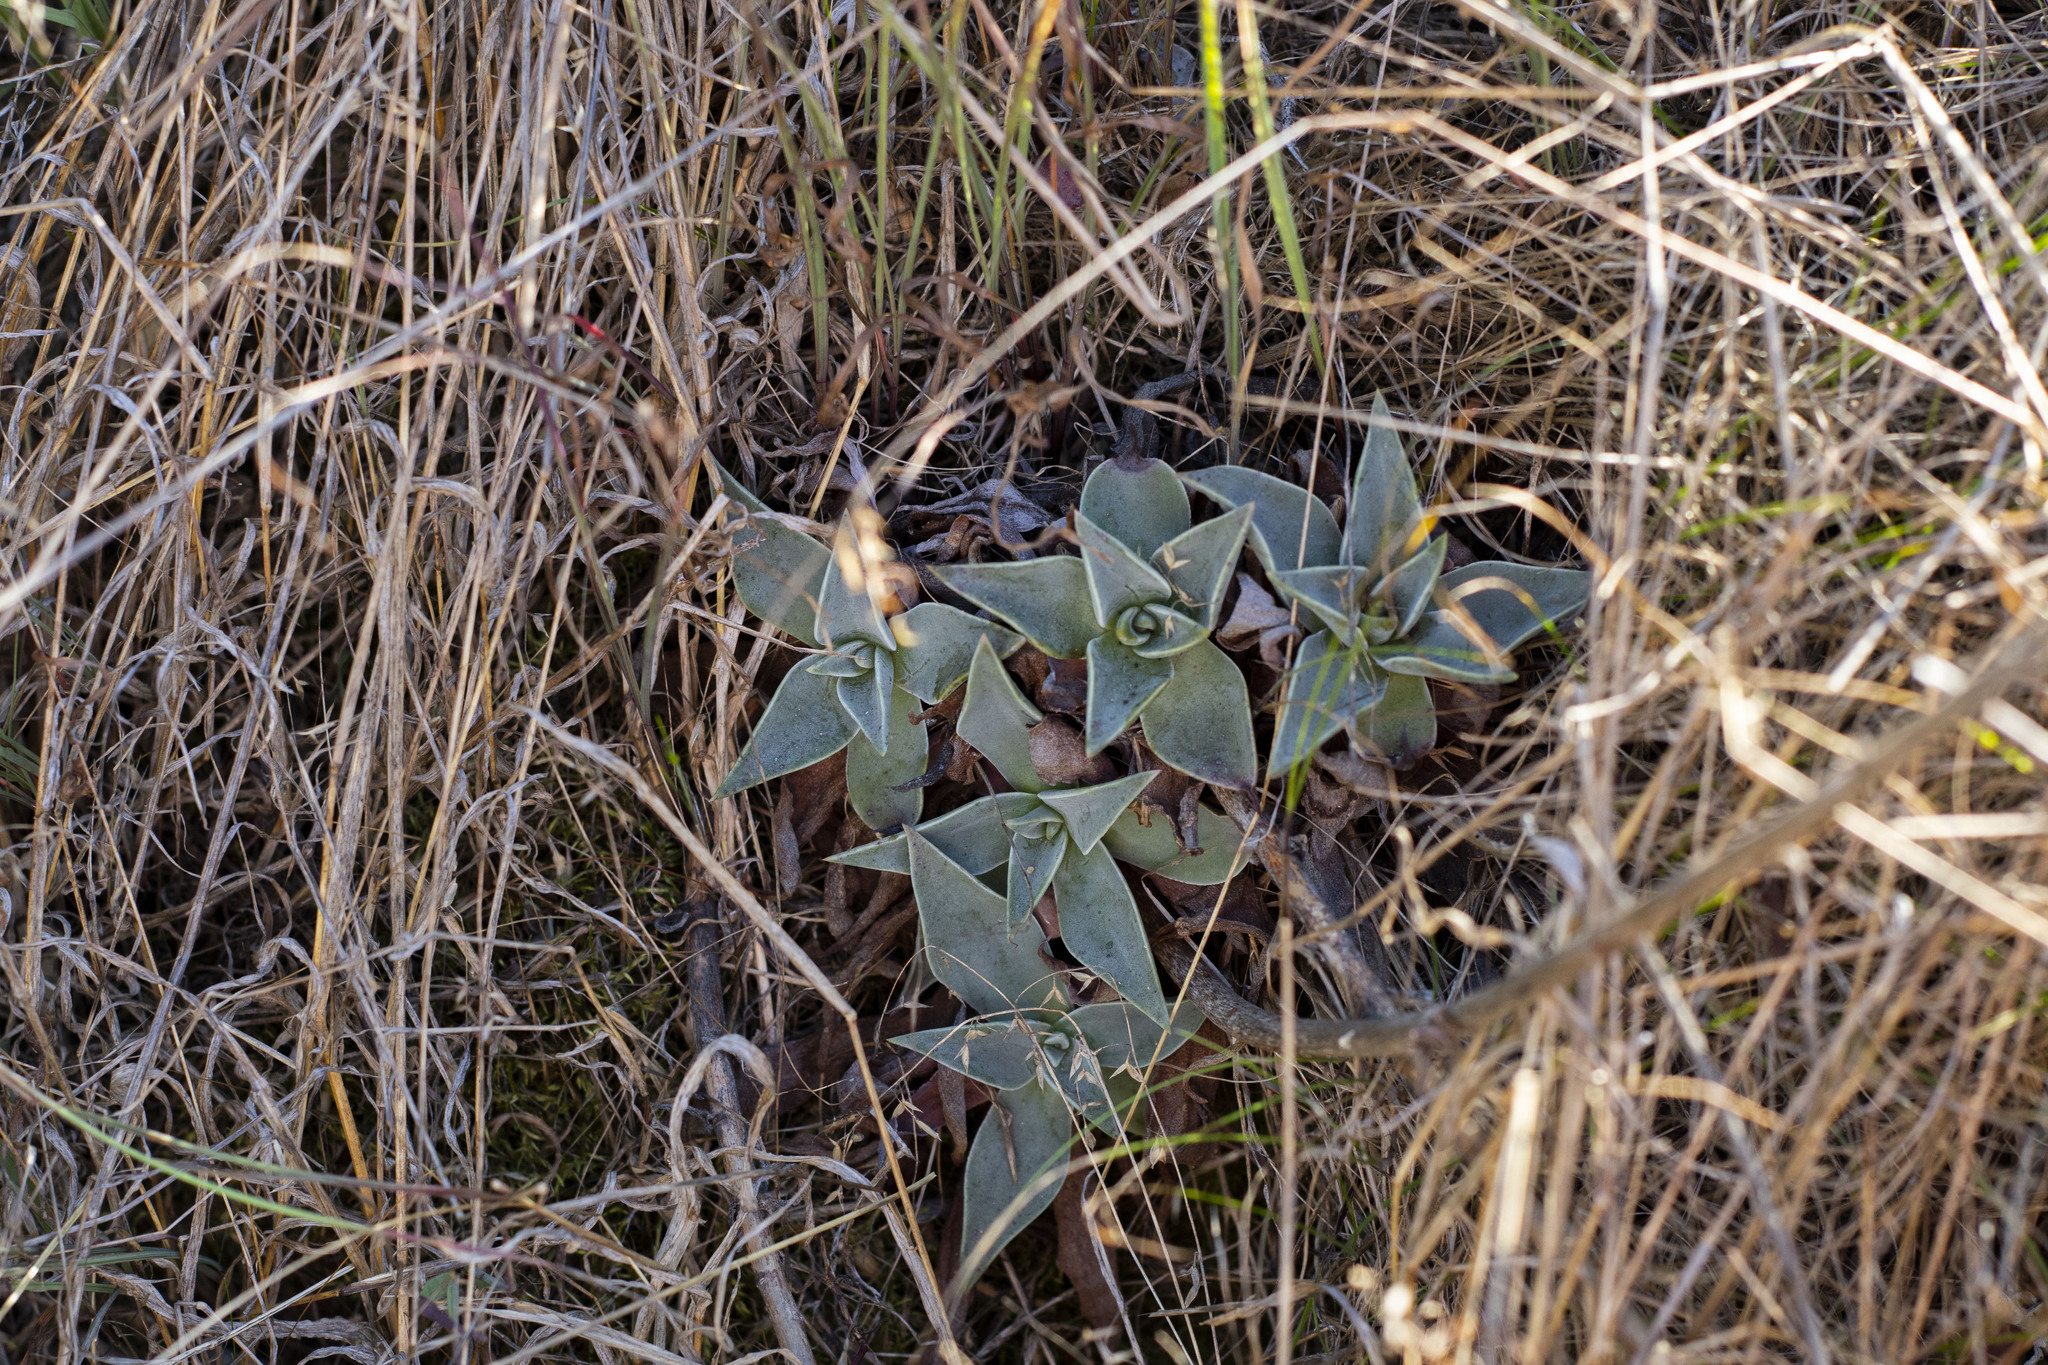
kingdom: Plantae
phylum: Tracheophyta
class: Magnoliopsida
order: Saxifragales
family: Crassulaceae
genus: Dudleya
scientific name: Dudleya lanceolata
